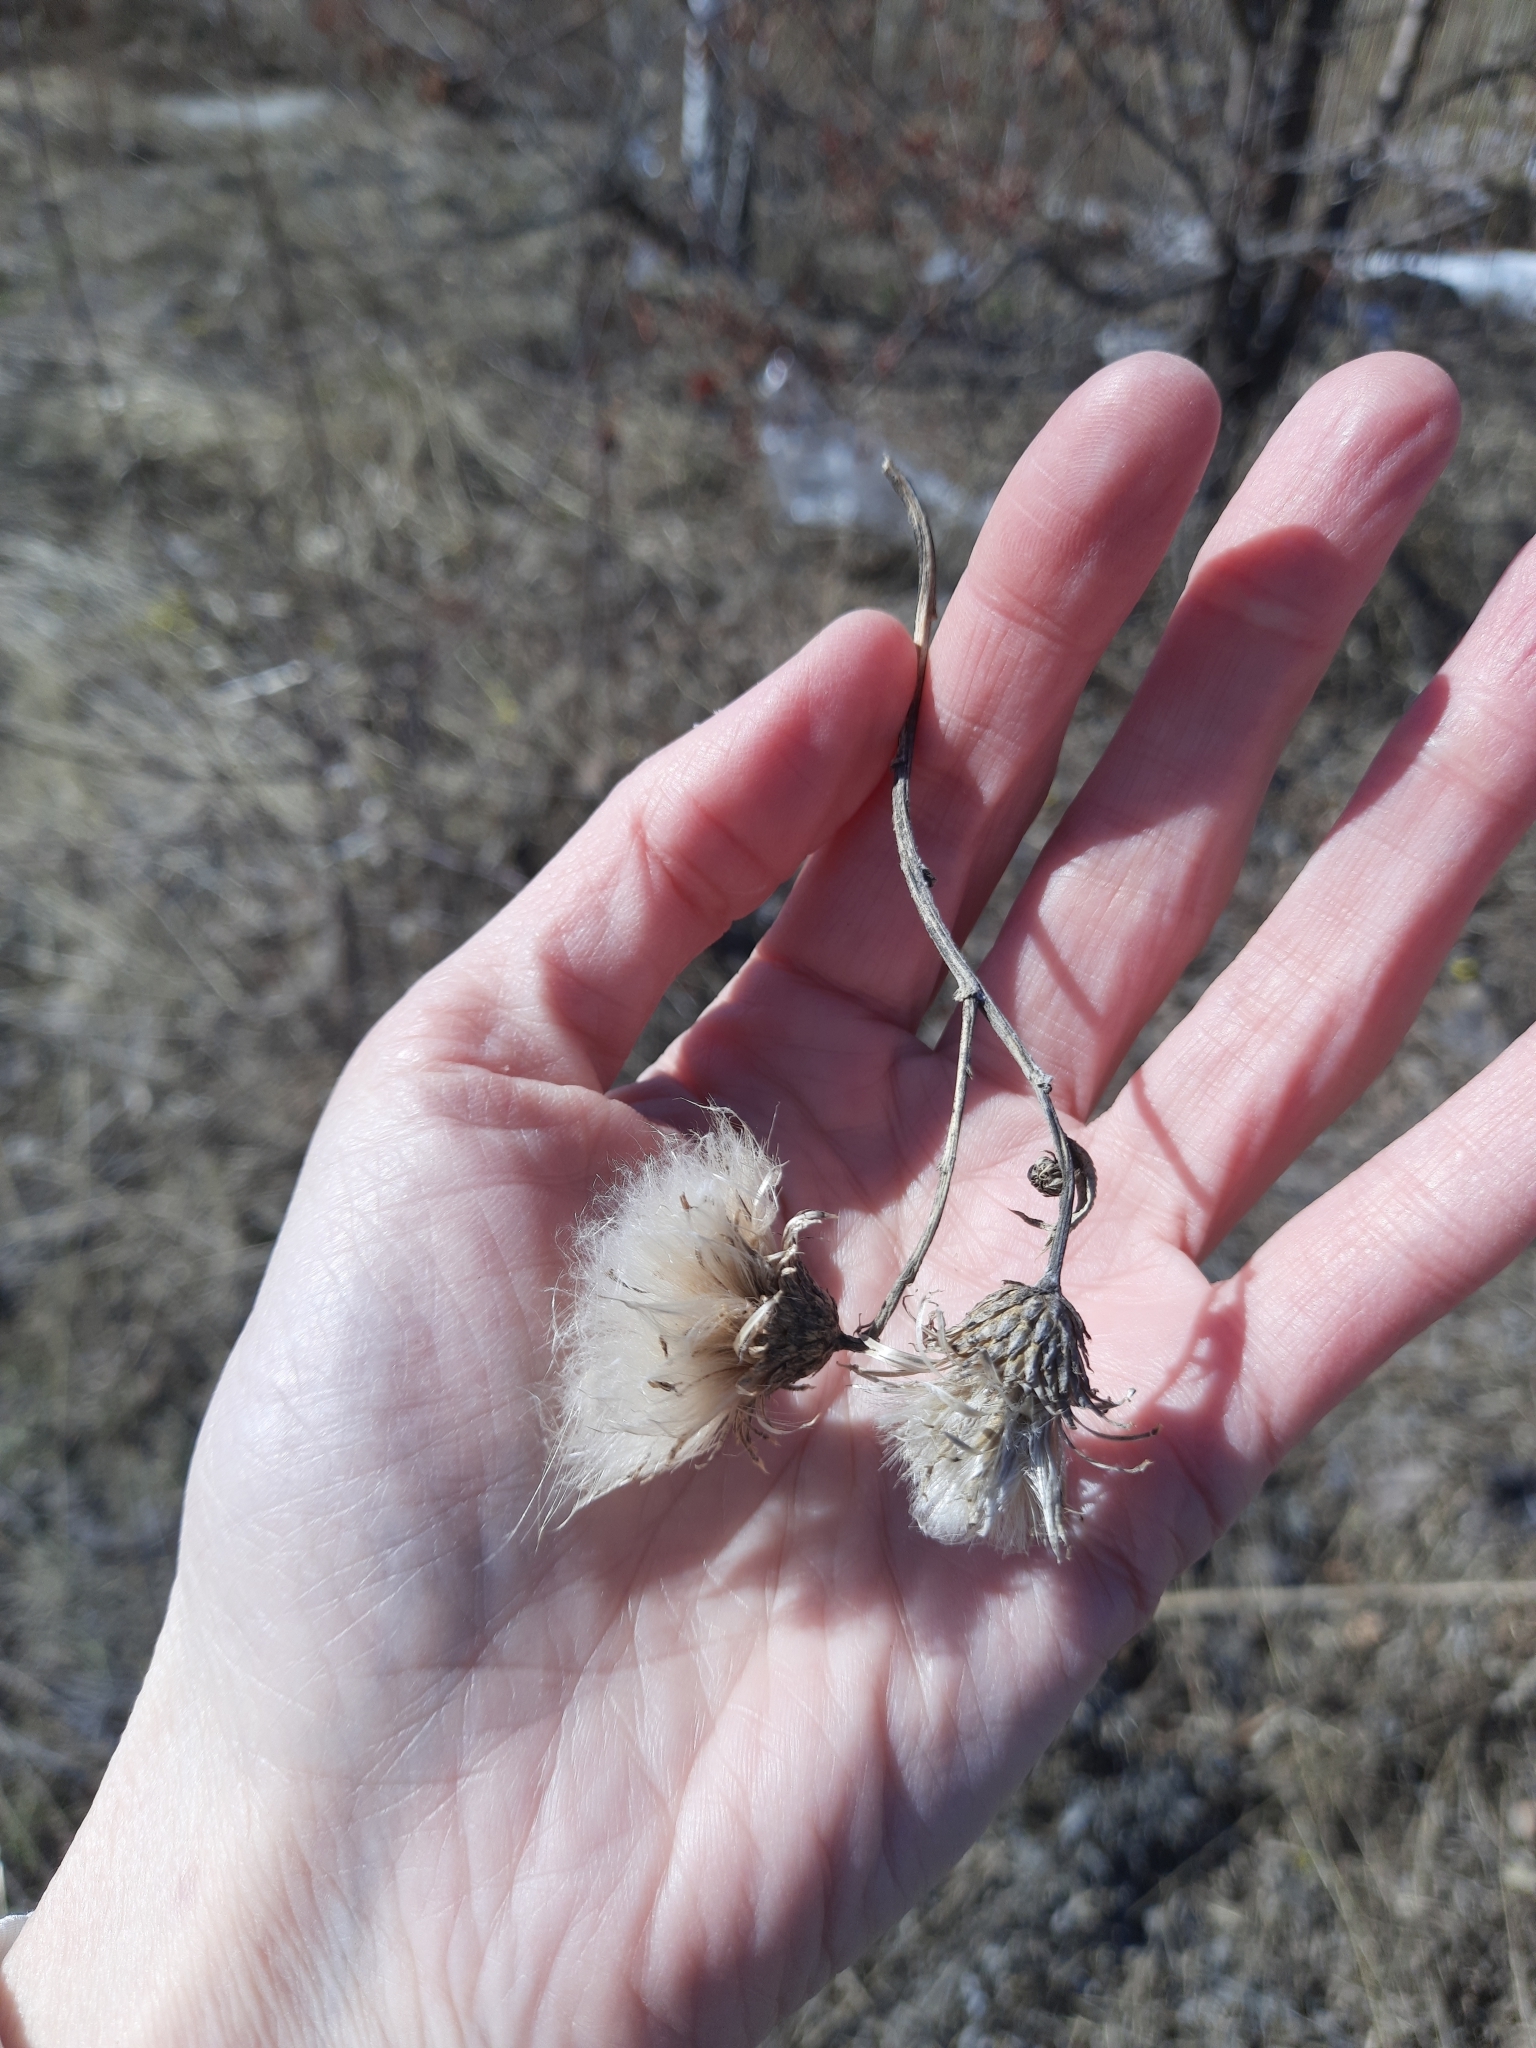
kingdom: Plantae
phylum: Tracheophyta
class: Magnoliopsida
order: Asterales
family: Asteraceae
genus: Cirsium
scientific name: Cirsium arvense
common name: Creeping thistle
